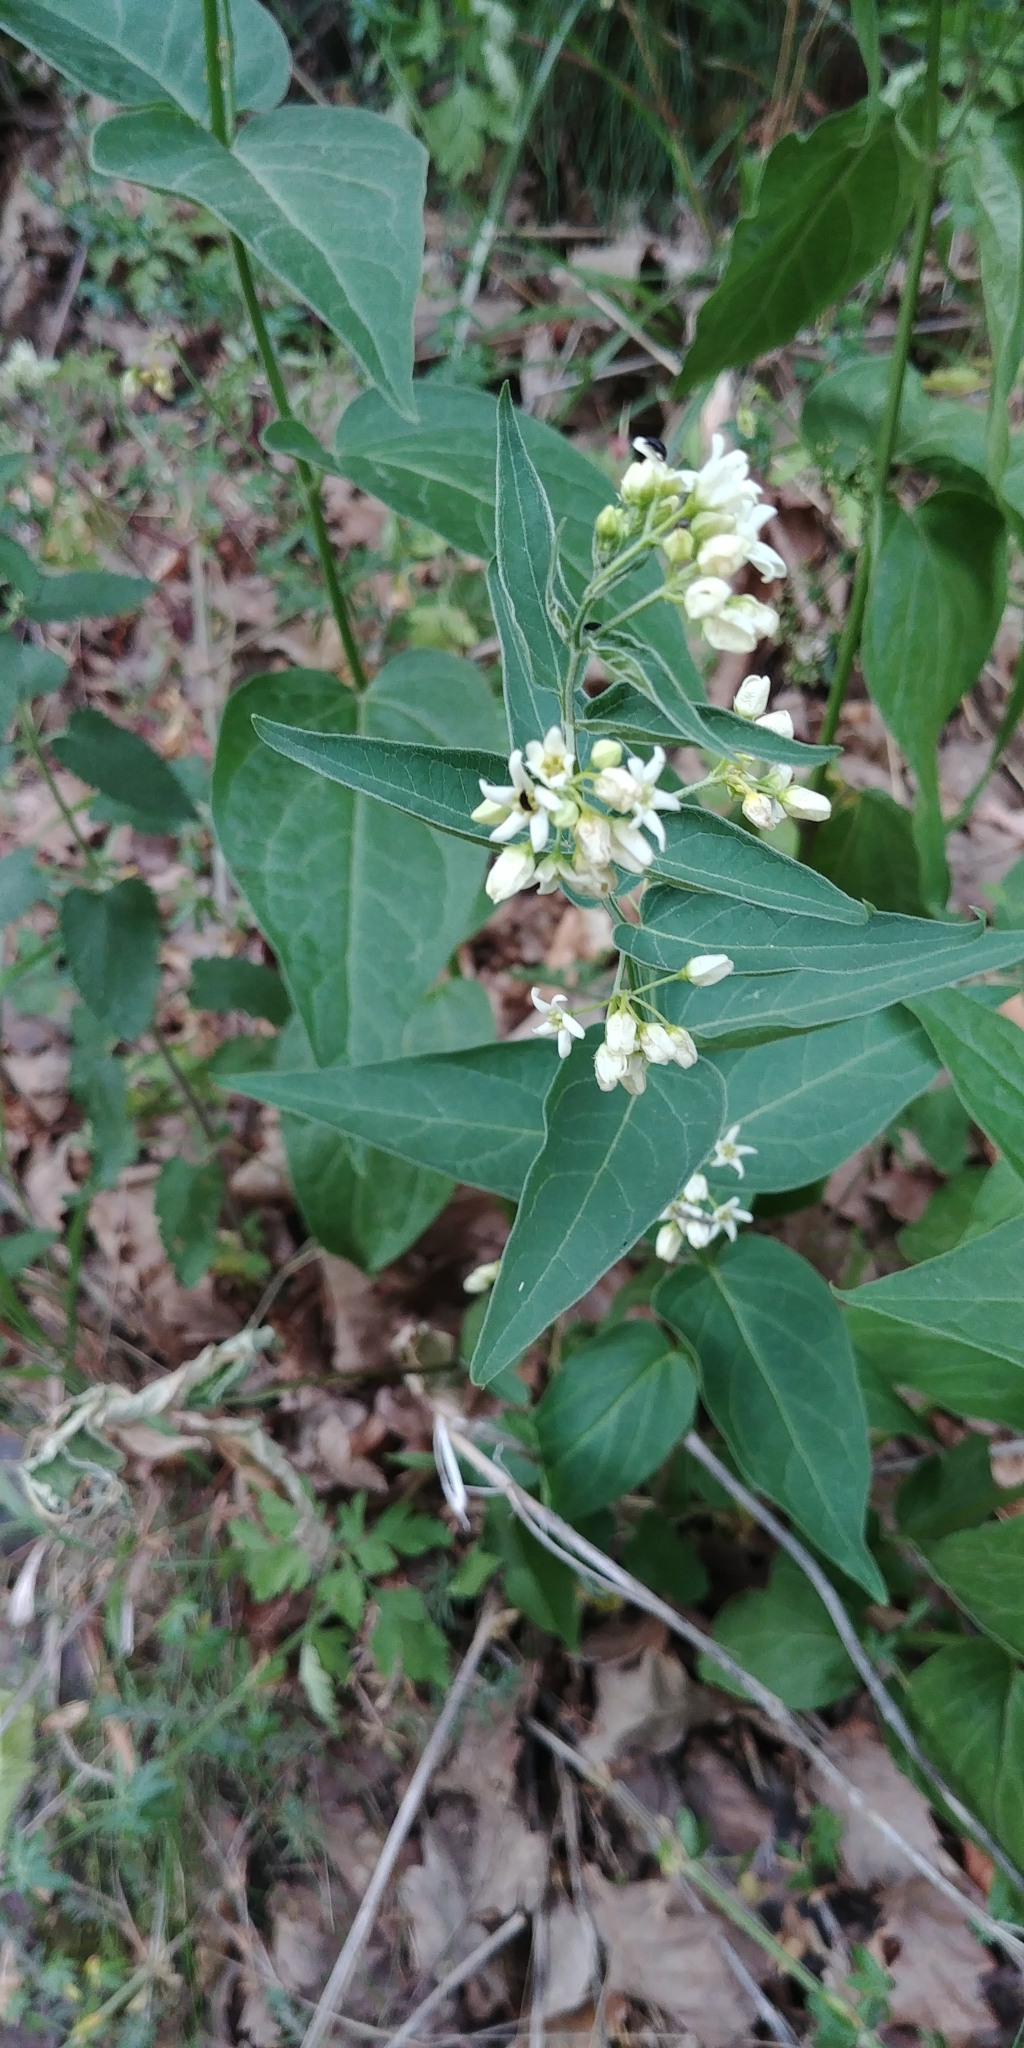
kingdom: Plantae
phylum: Tracheophyta
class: Magnoliopsida
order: Gentianales
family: Apocynaceae
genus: Vincetoxicum
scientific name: Vincetoxicum hirundinaria
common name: White swallowwort
